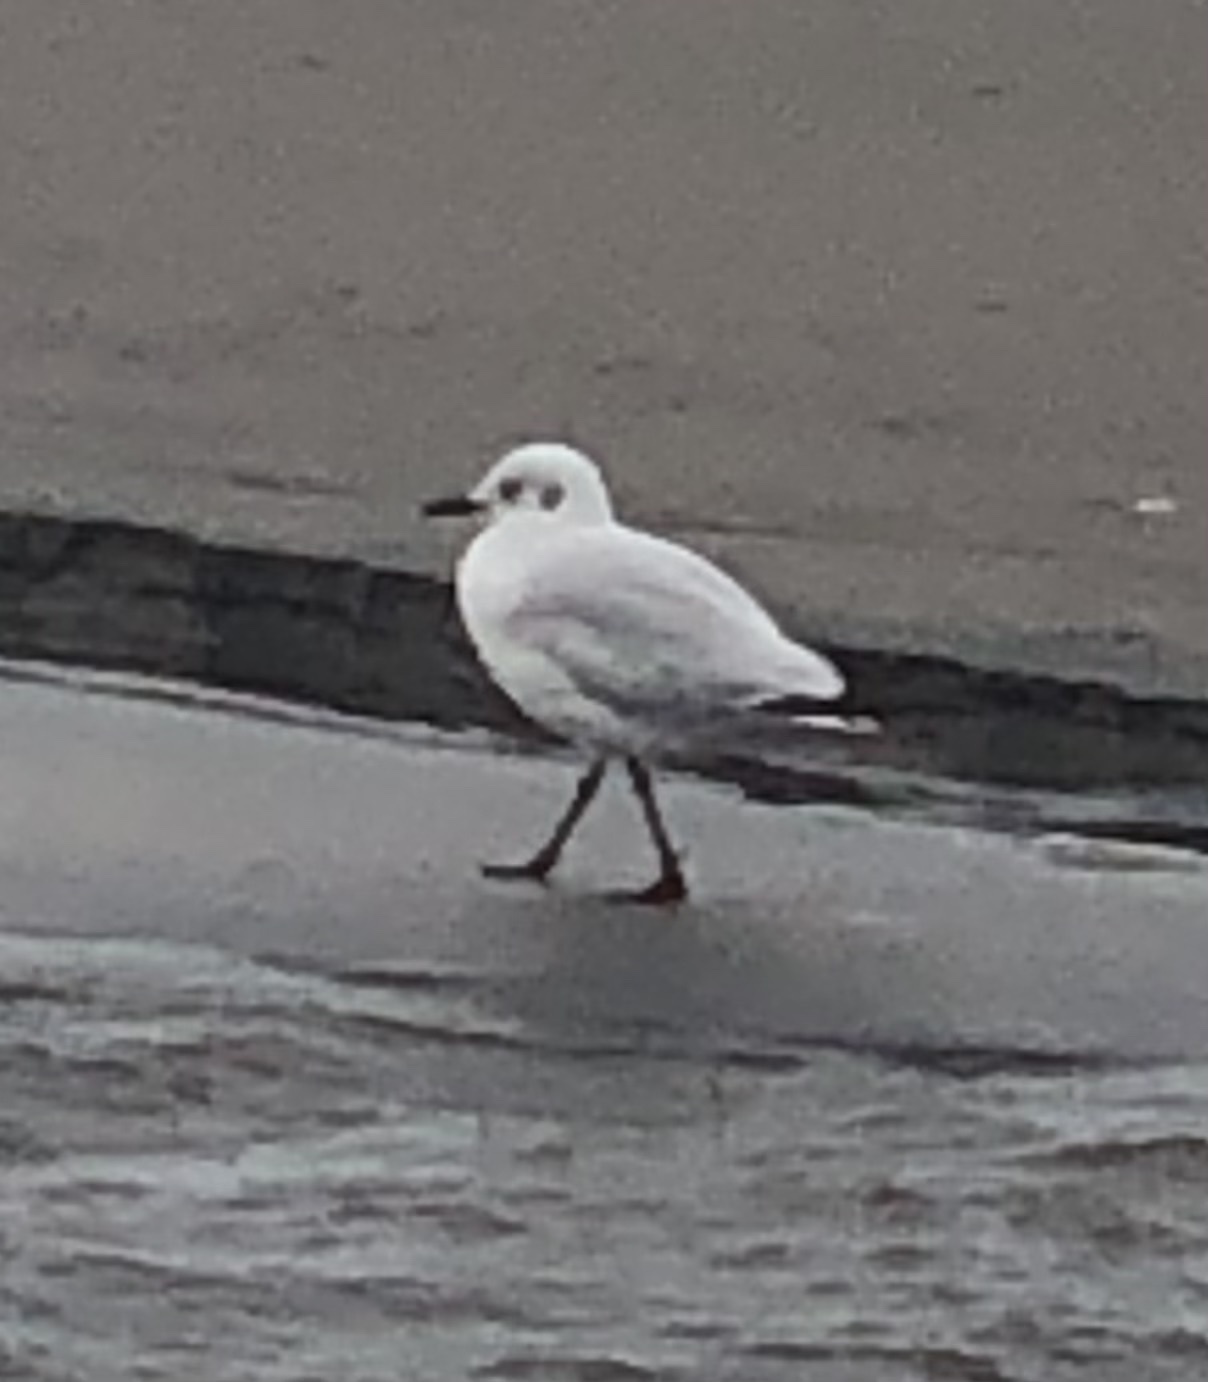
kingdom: Animalia
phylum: Chordata
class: Aves
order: Charadriiformes
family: Laridae
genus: Chroicocephalus
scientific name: Chroicocephalus maculipennis
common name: Brown-hooded gull
